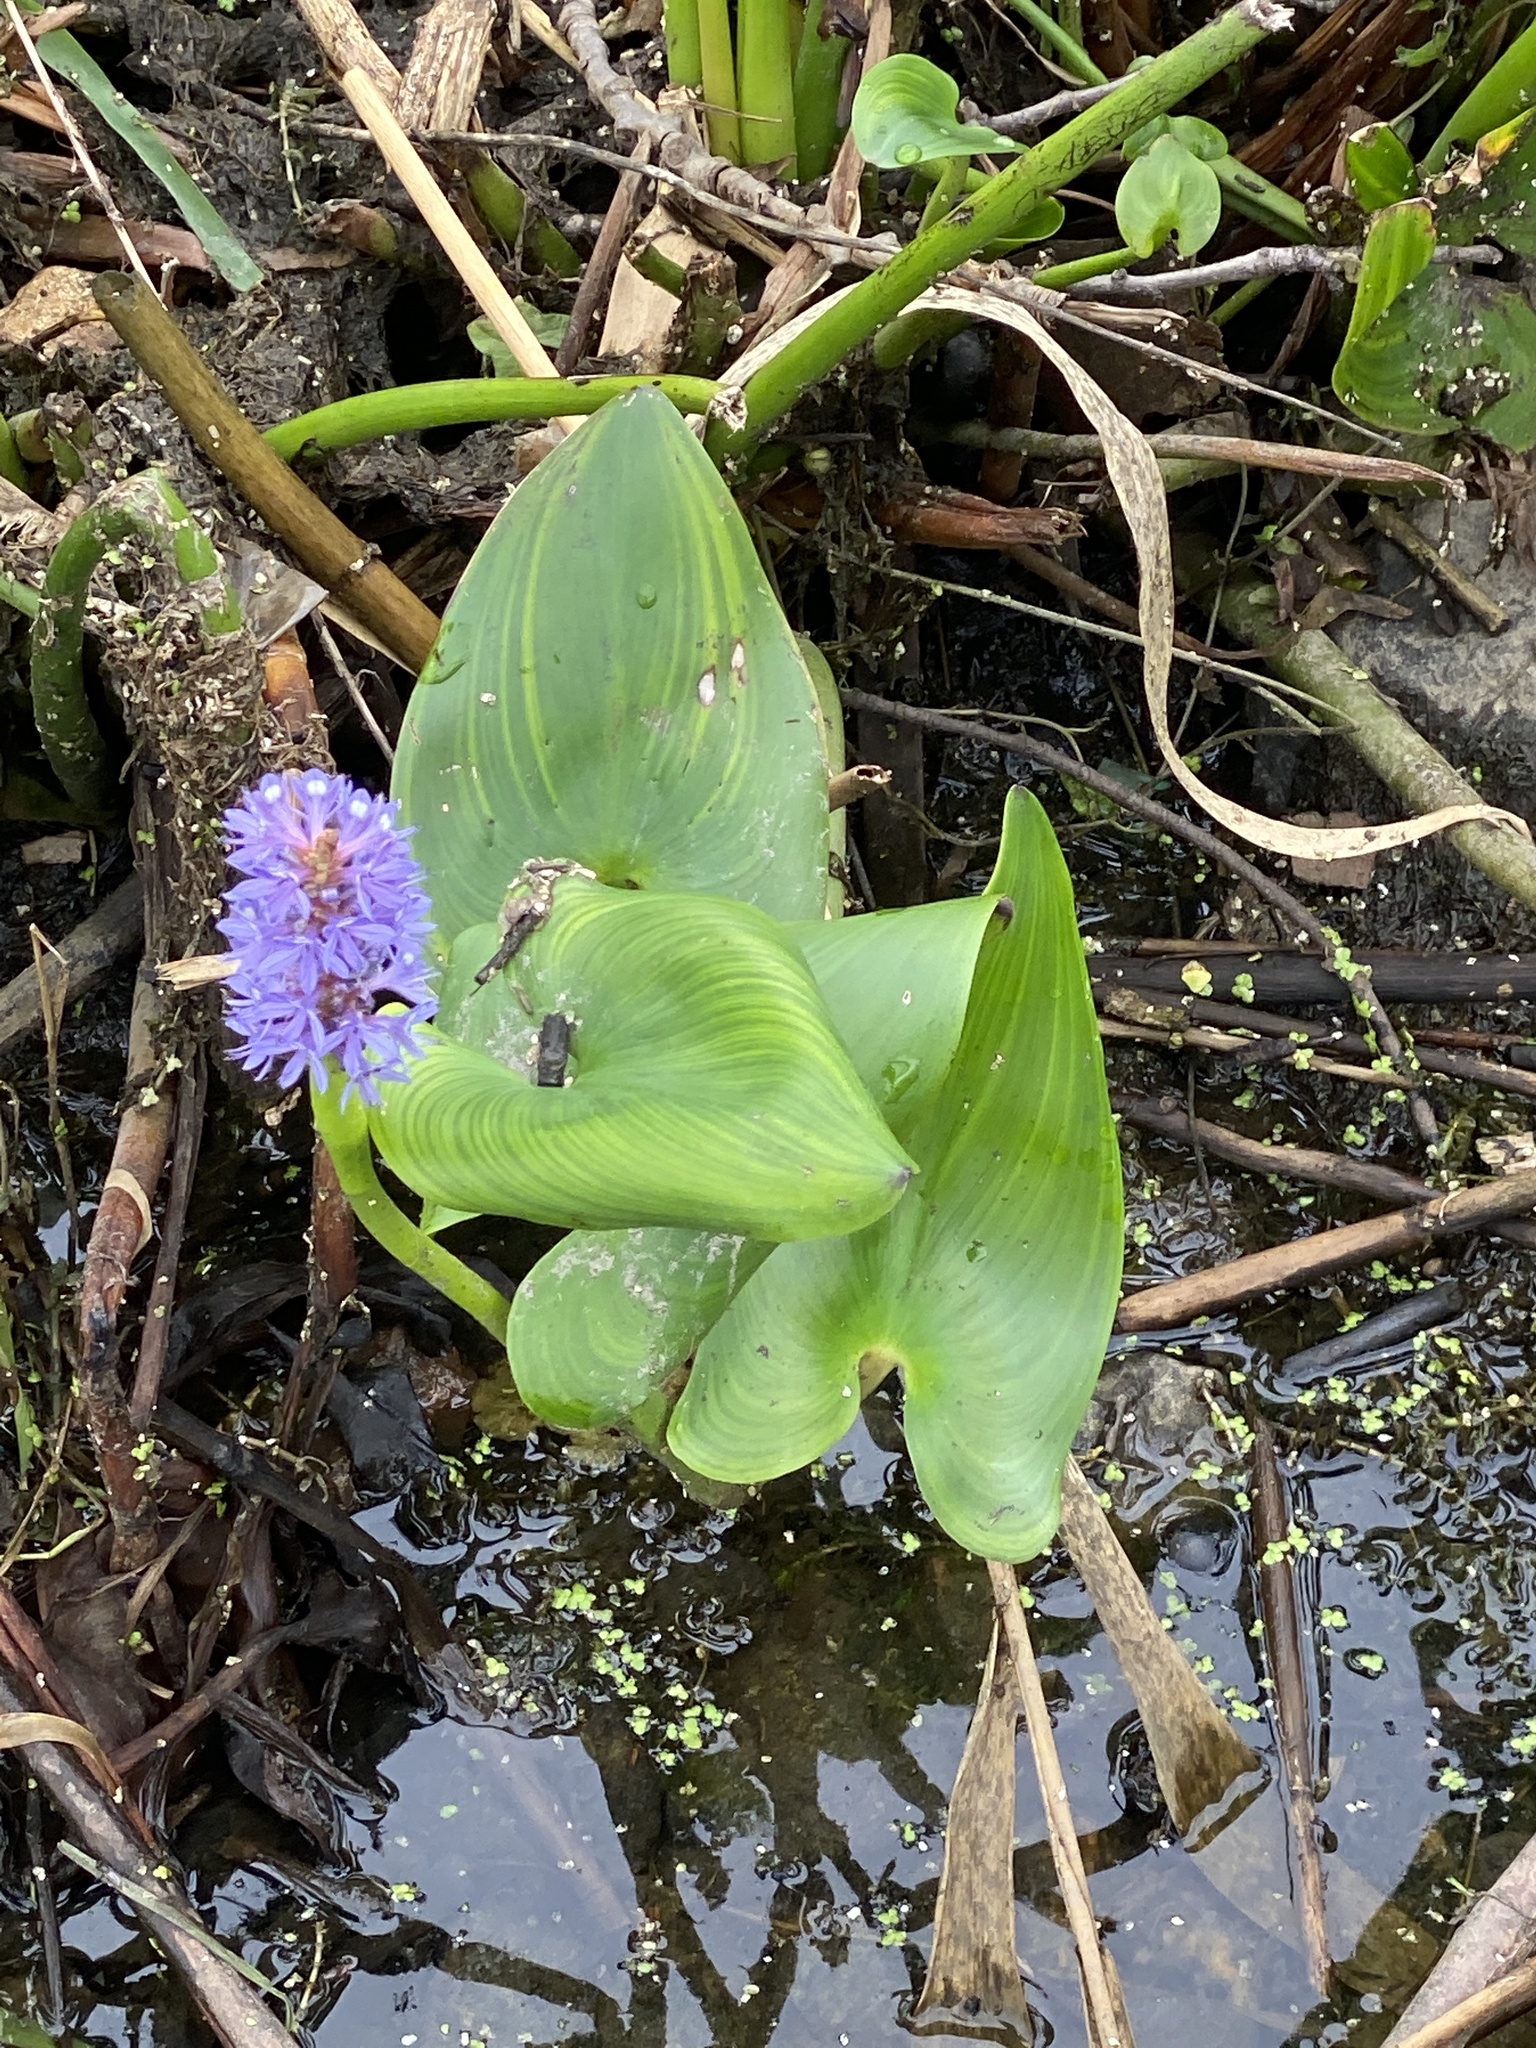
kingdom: Plantae
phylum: Tracheophyta
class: Liliopsida
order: Commelinales
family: Pontederiaceae
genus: Pontederia
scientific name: Pontederia cordata
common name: Pickerelweed
